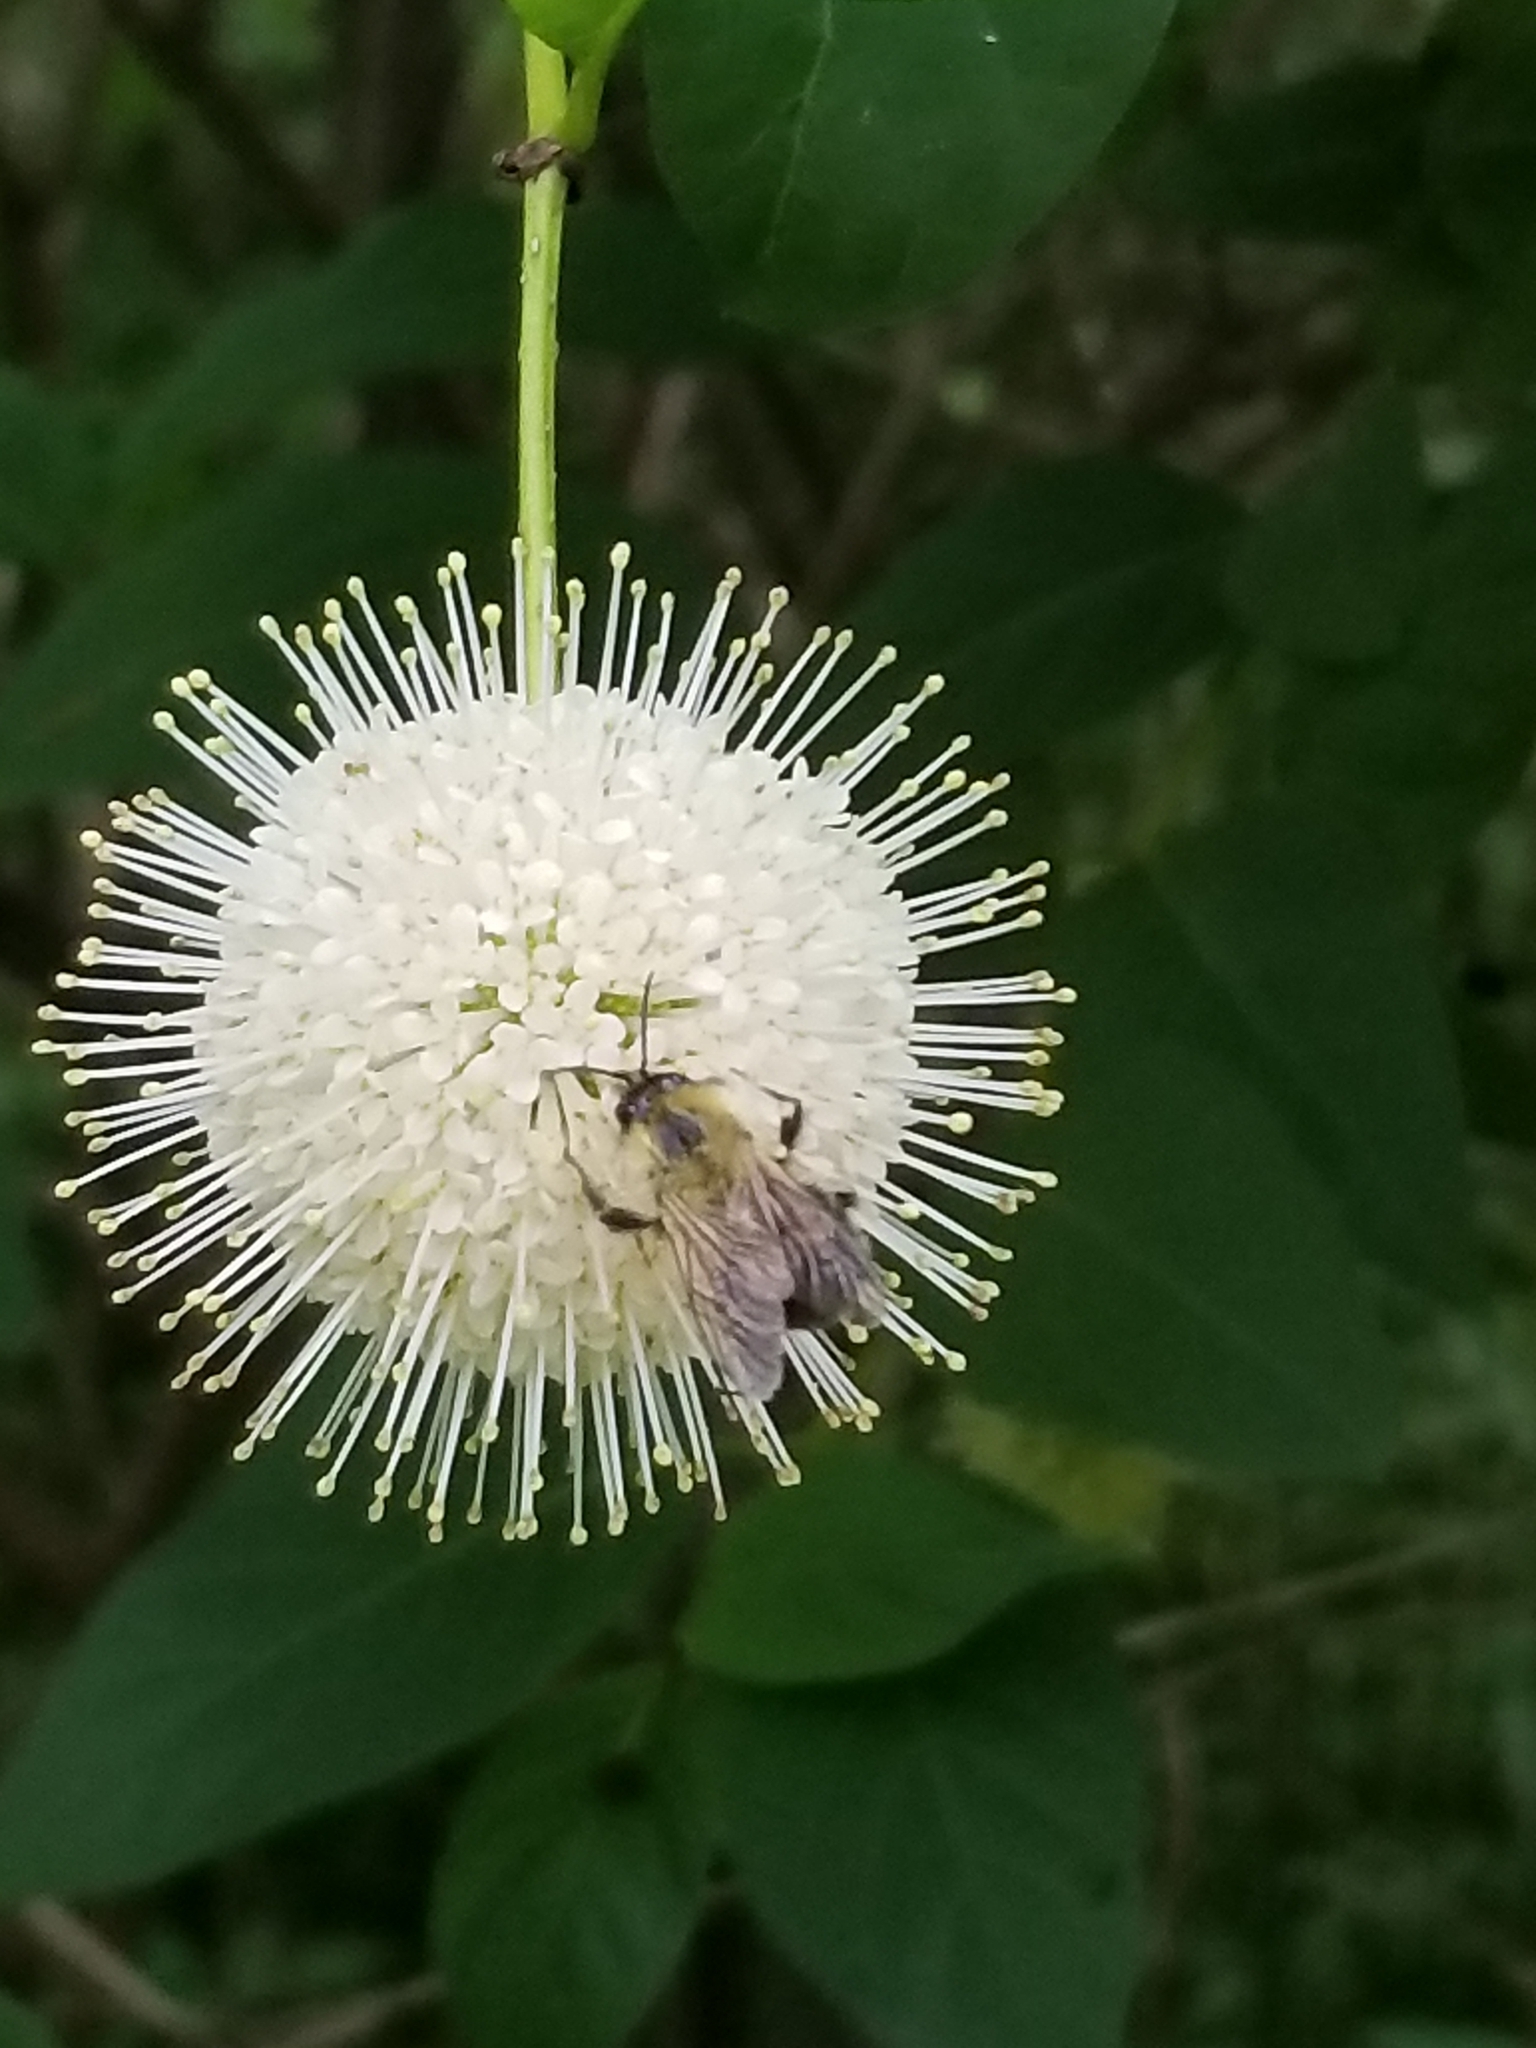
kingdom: Plantae
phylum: Tracheophyta
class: Magnoliopsida
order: Gentianales
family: Rubiaceae
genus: Cephalanthus
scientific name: Cephalanthus occidentalis
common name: Button-willow
